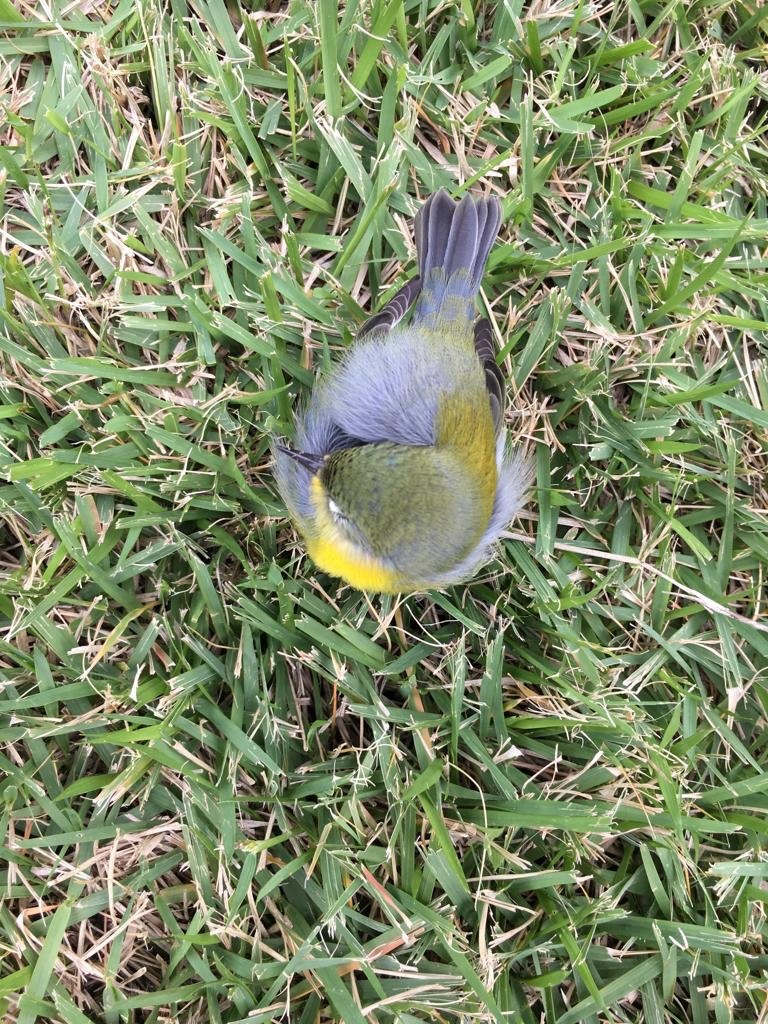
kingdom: Animalia
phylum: Chordata
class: Aves
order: Passeriformes
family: Parulidae
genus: Setophaga
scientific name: Setophaga americana
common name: Northern parula
